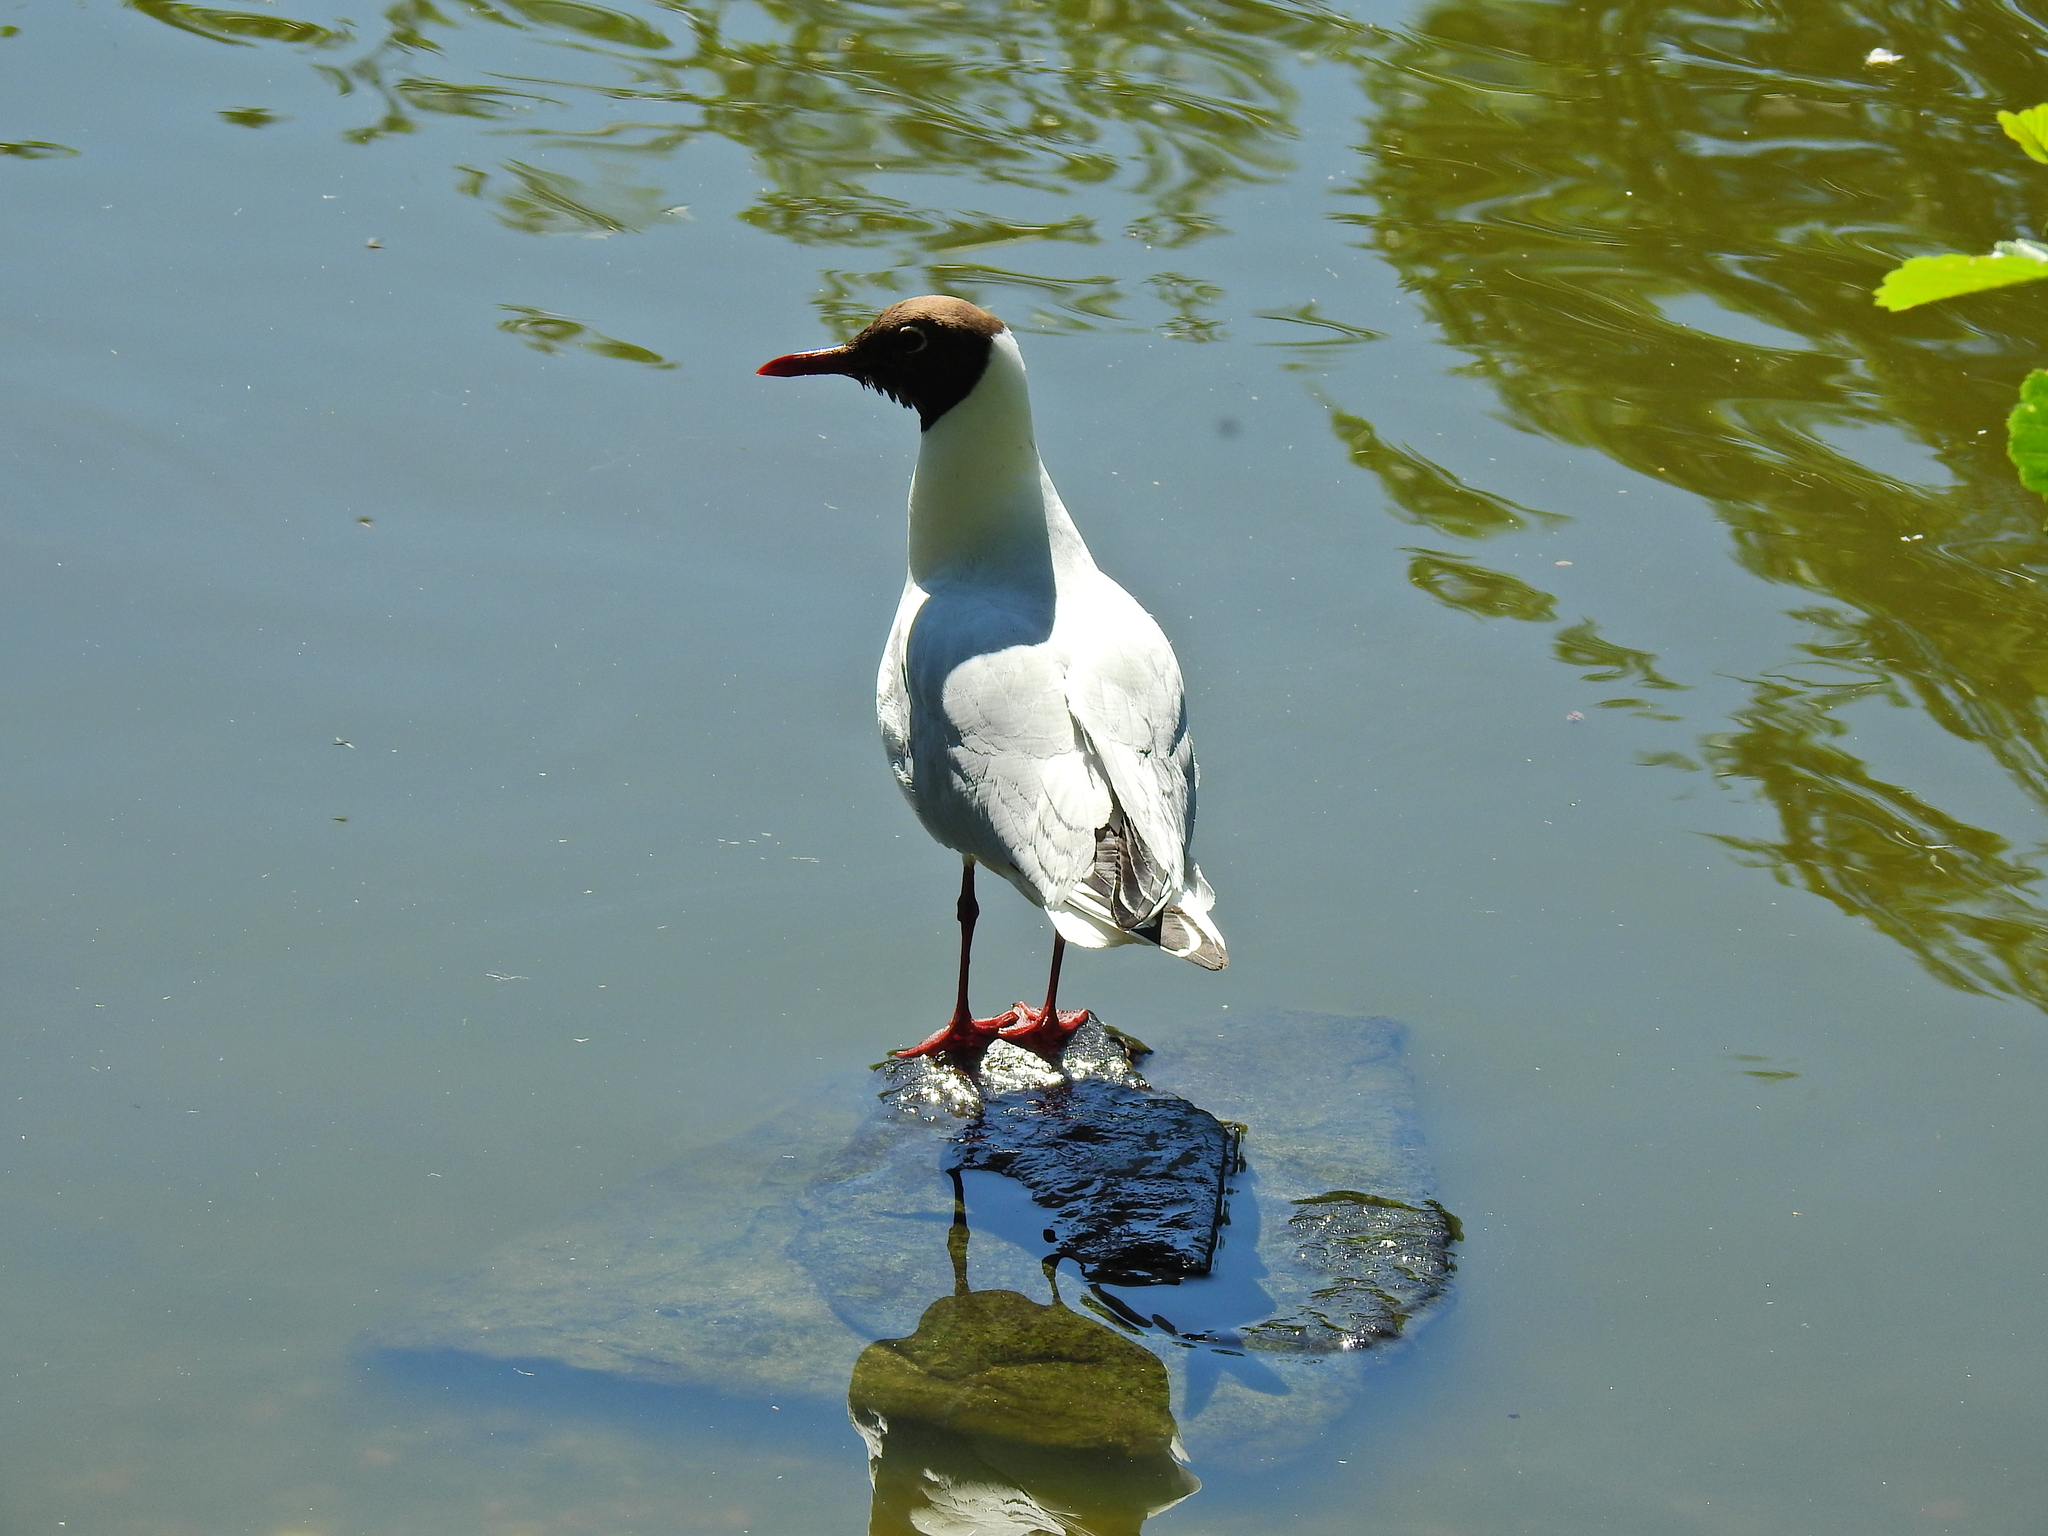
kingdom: Animalia
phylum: Chordata
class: Aves
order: Charadriiformes
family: Laridae
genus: Chroicocephalus
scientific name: Chroicocephalus ridibundus
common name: Black-headed gull
